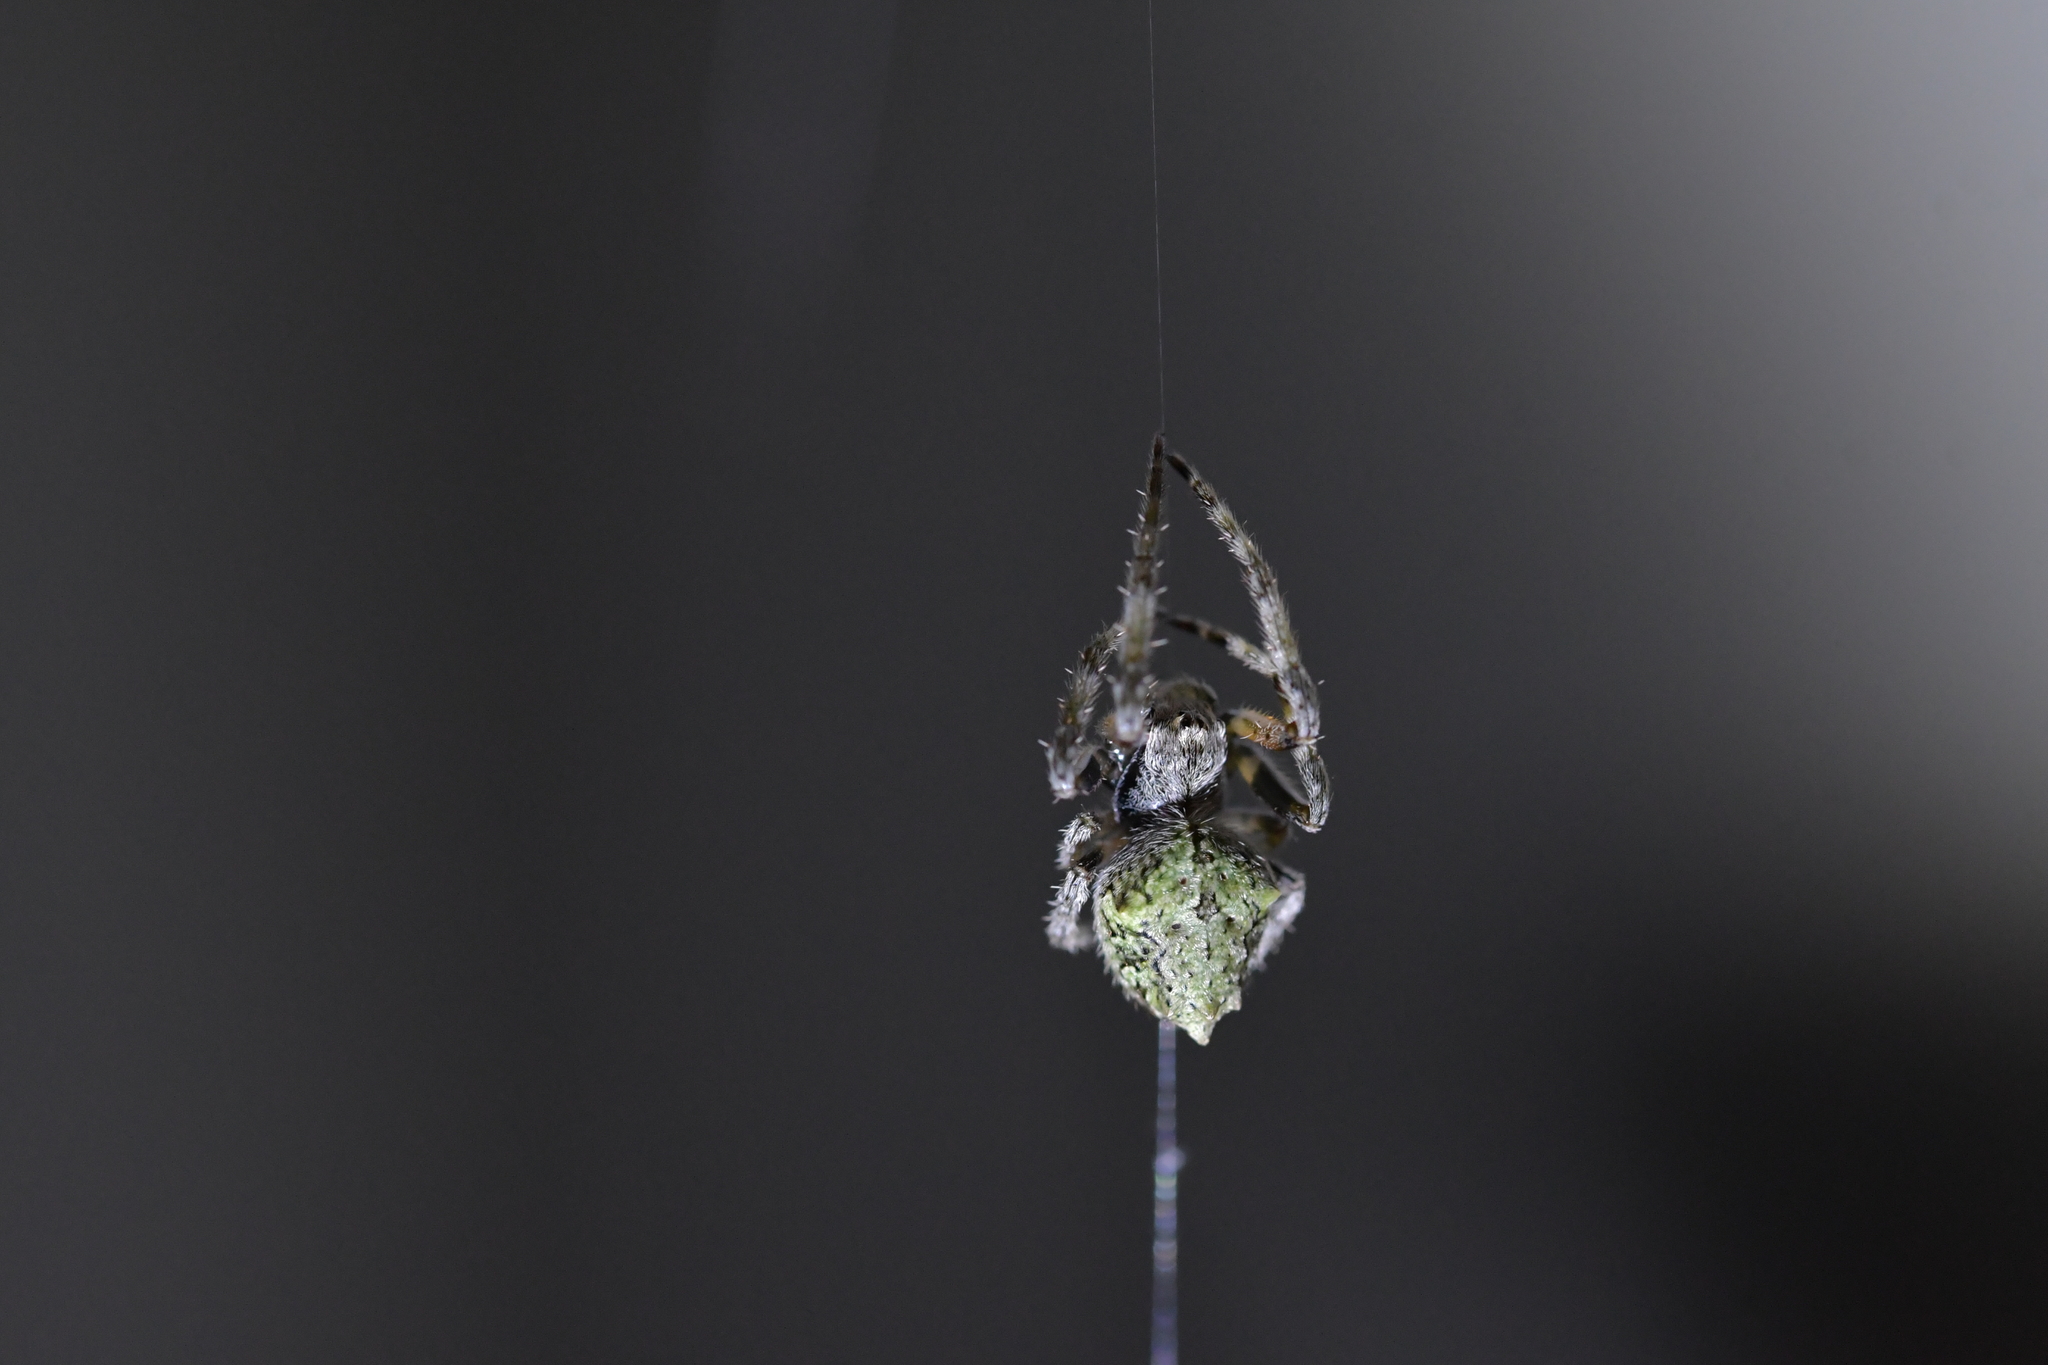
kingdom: Animalia
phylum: Arthropoda
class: Arachnida
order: Araneae
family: Araneidae
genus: Eriophora
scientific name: Eriophora pustulosa
